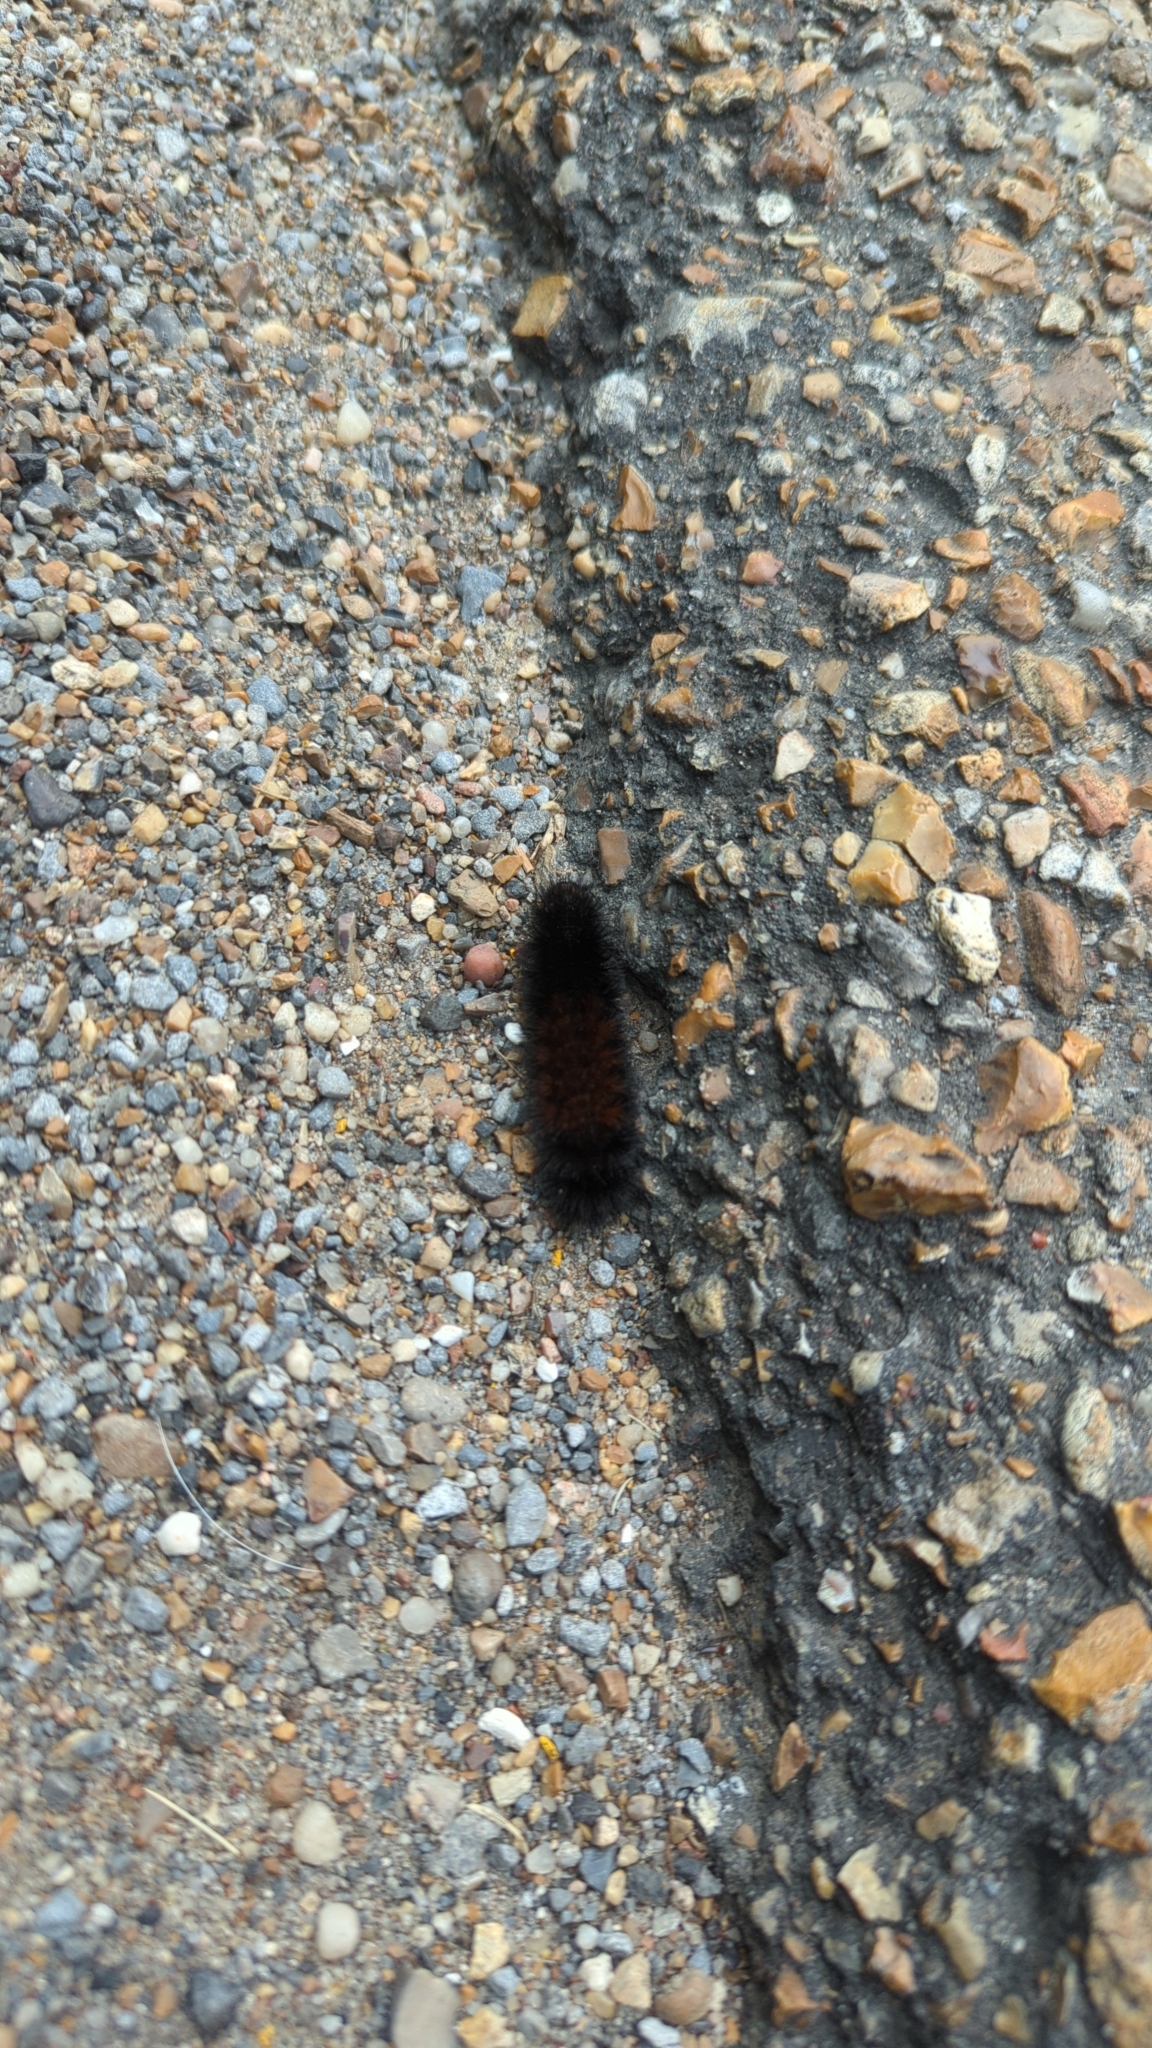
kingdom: Animalia
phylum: Arthropoda
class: Insecta
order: Lepidoptera
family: Erebidae
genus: Pyrrharctia
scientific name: Pyrrharctia isabella
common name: Isabella tiger moth
